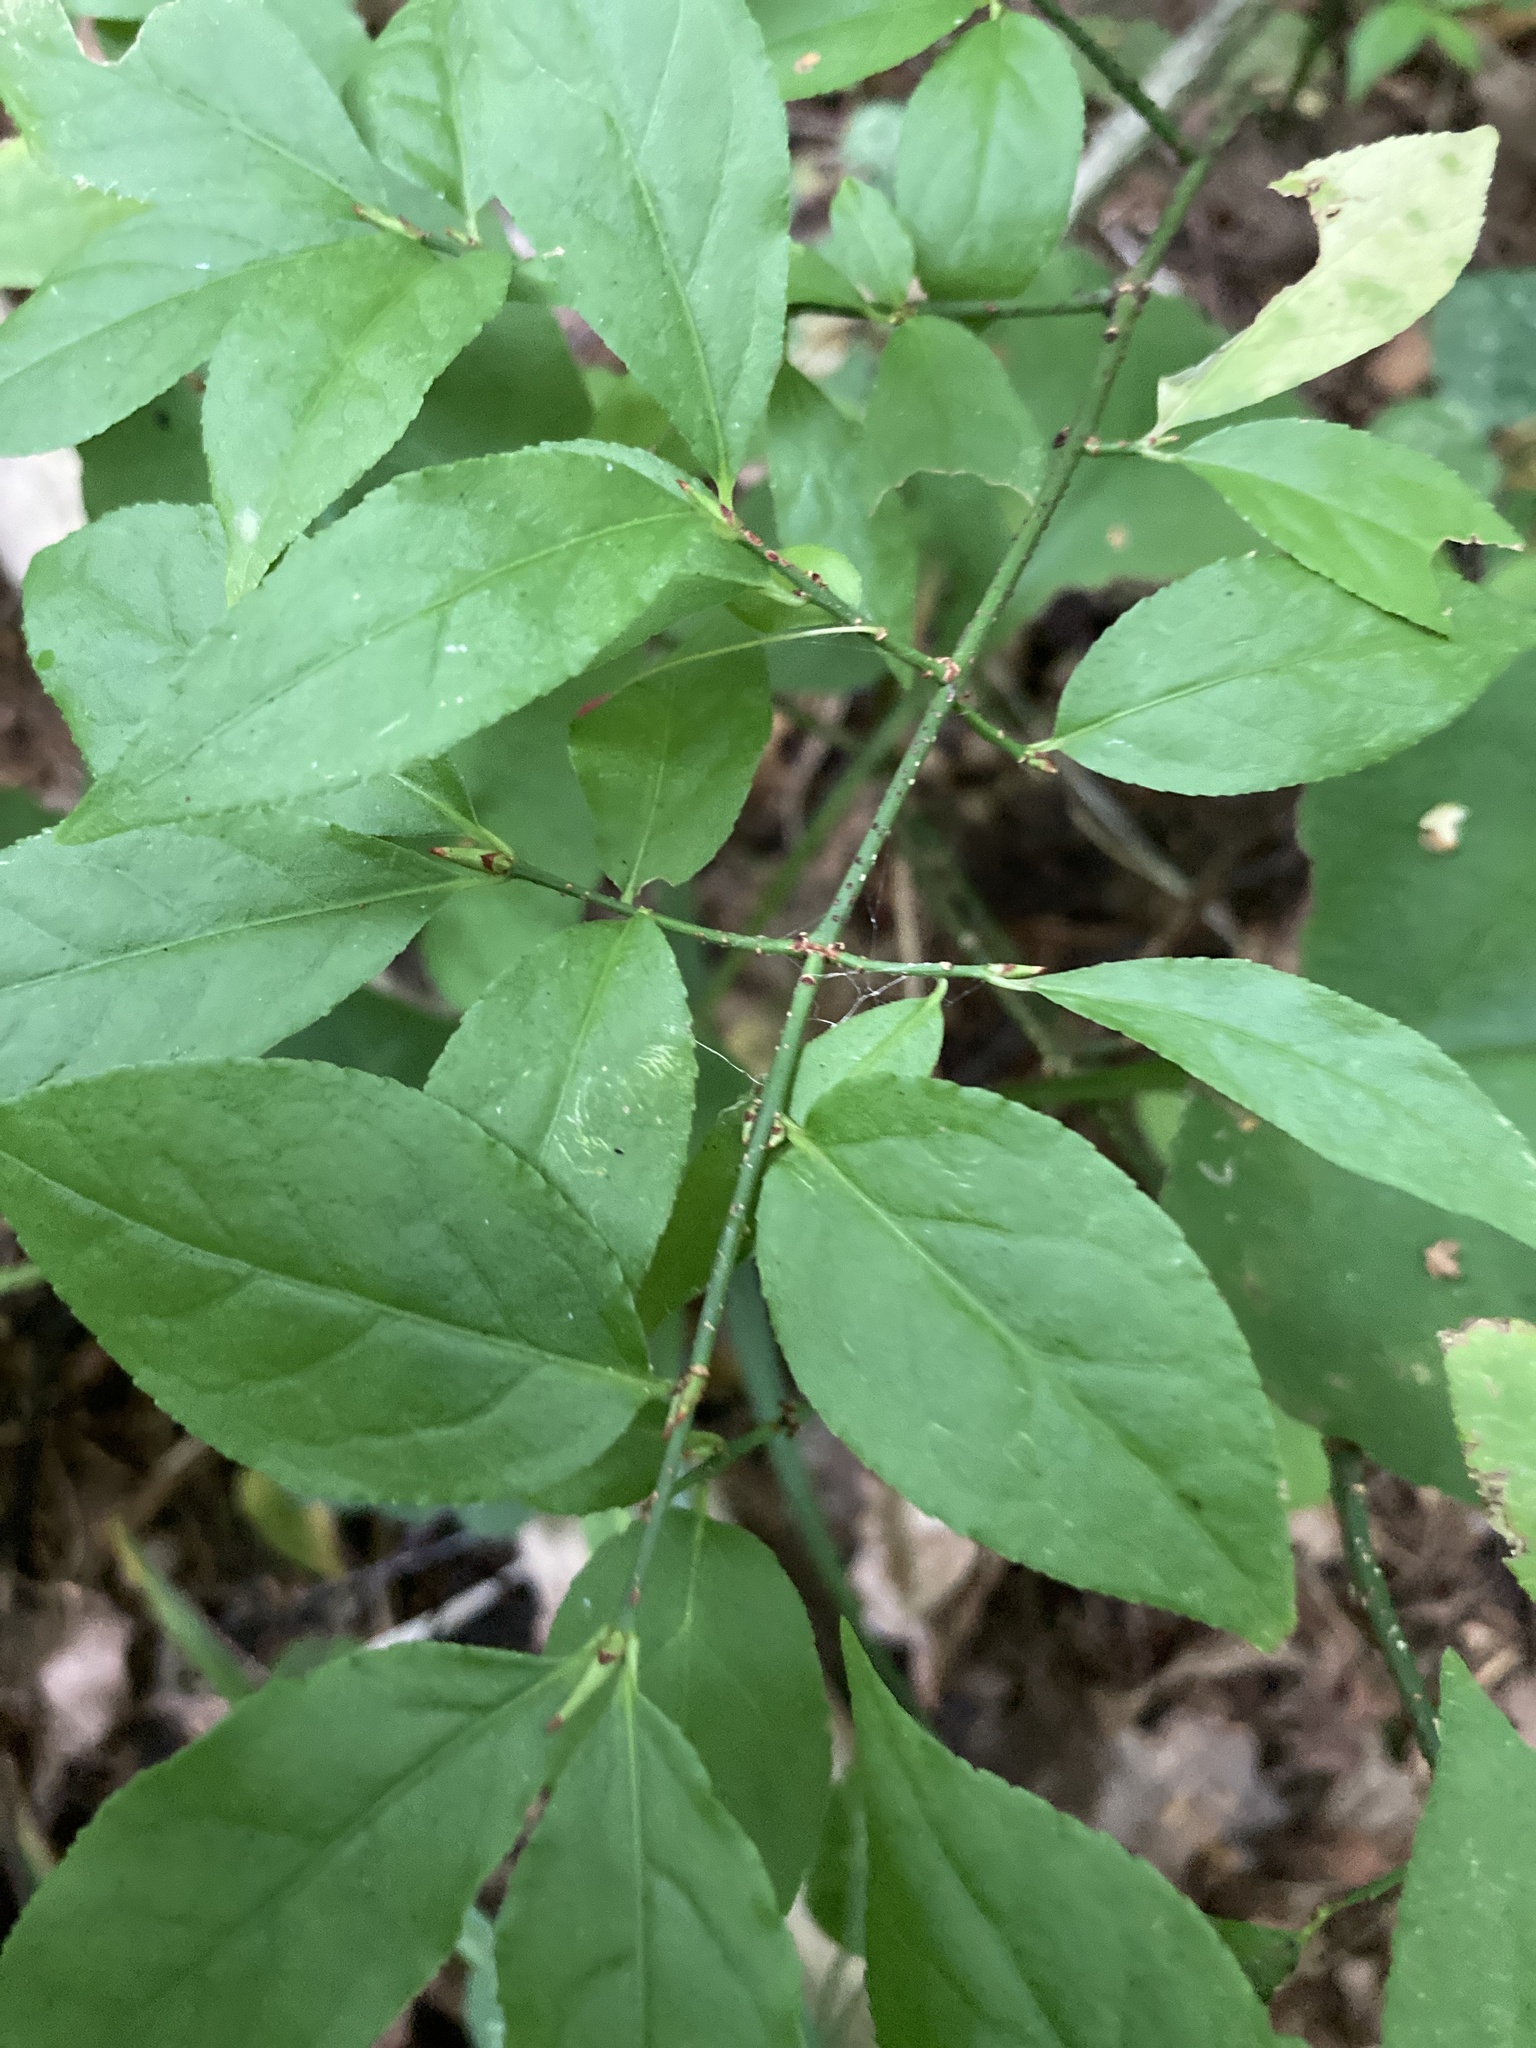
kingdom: Plantae
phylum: Tracheophyta
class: Magnoliopsida
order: Celastrales
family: Celastraceae
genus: Euonymus
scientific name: Euonymus verrucosus
